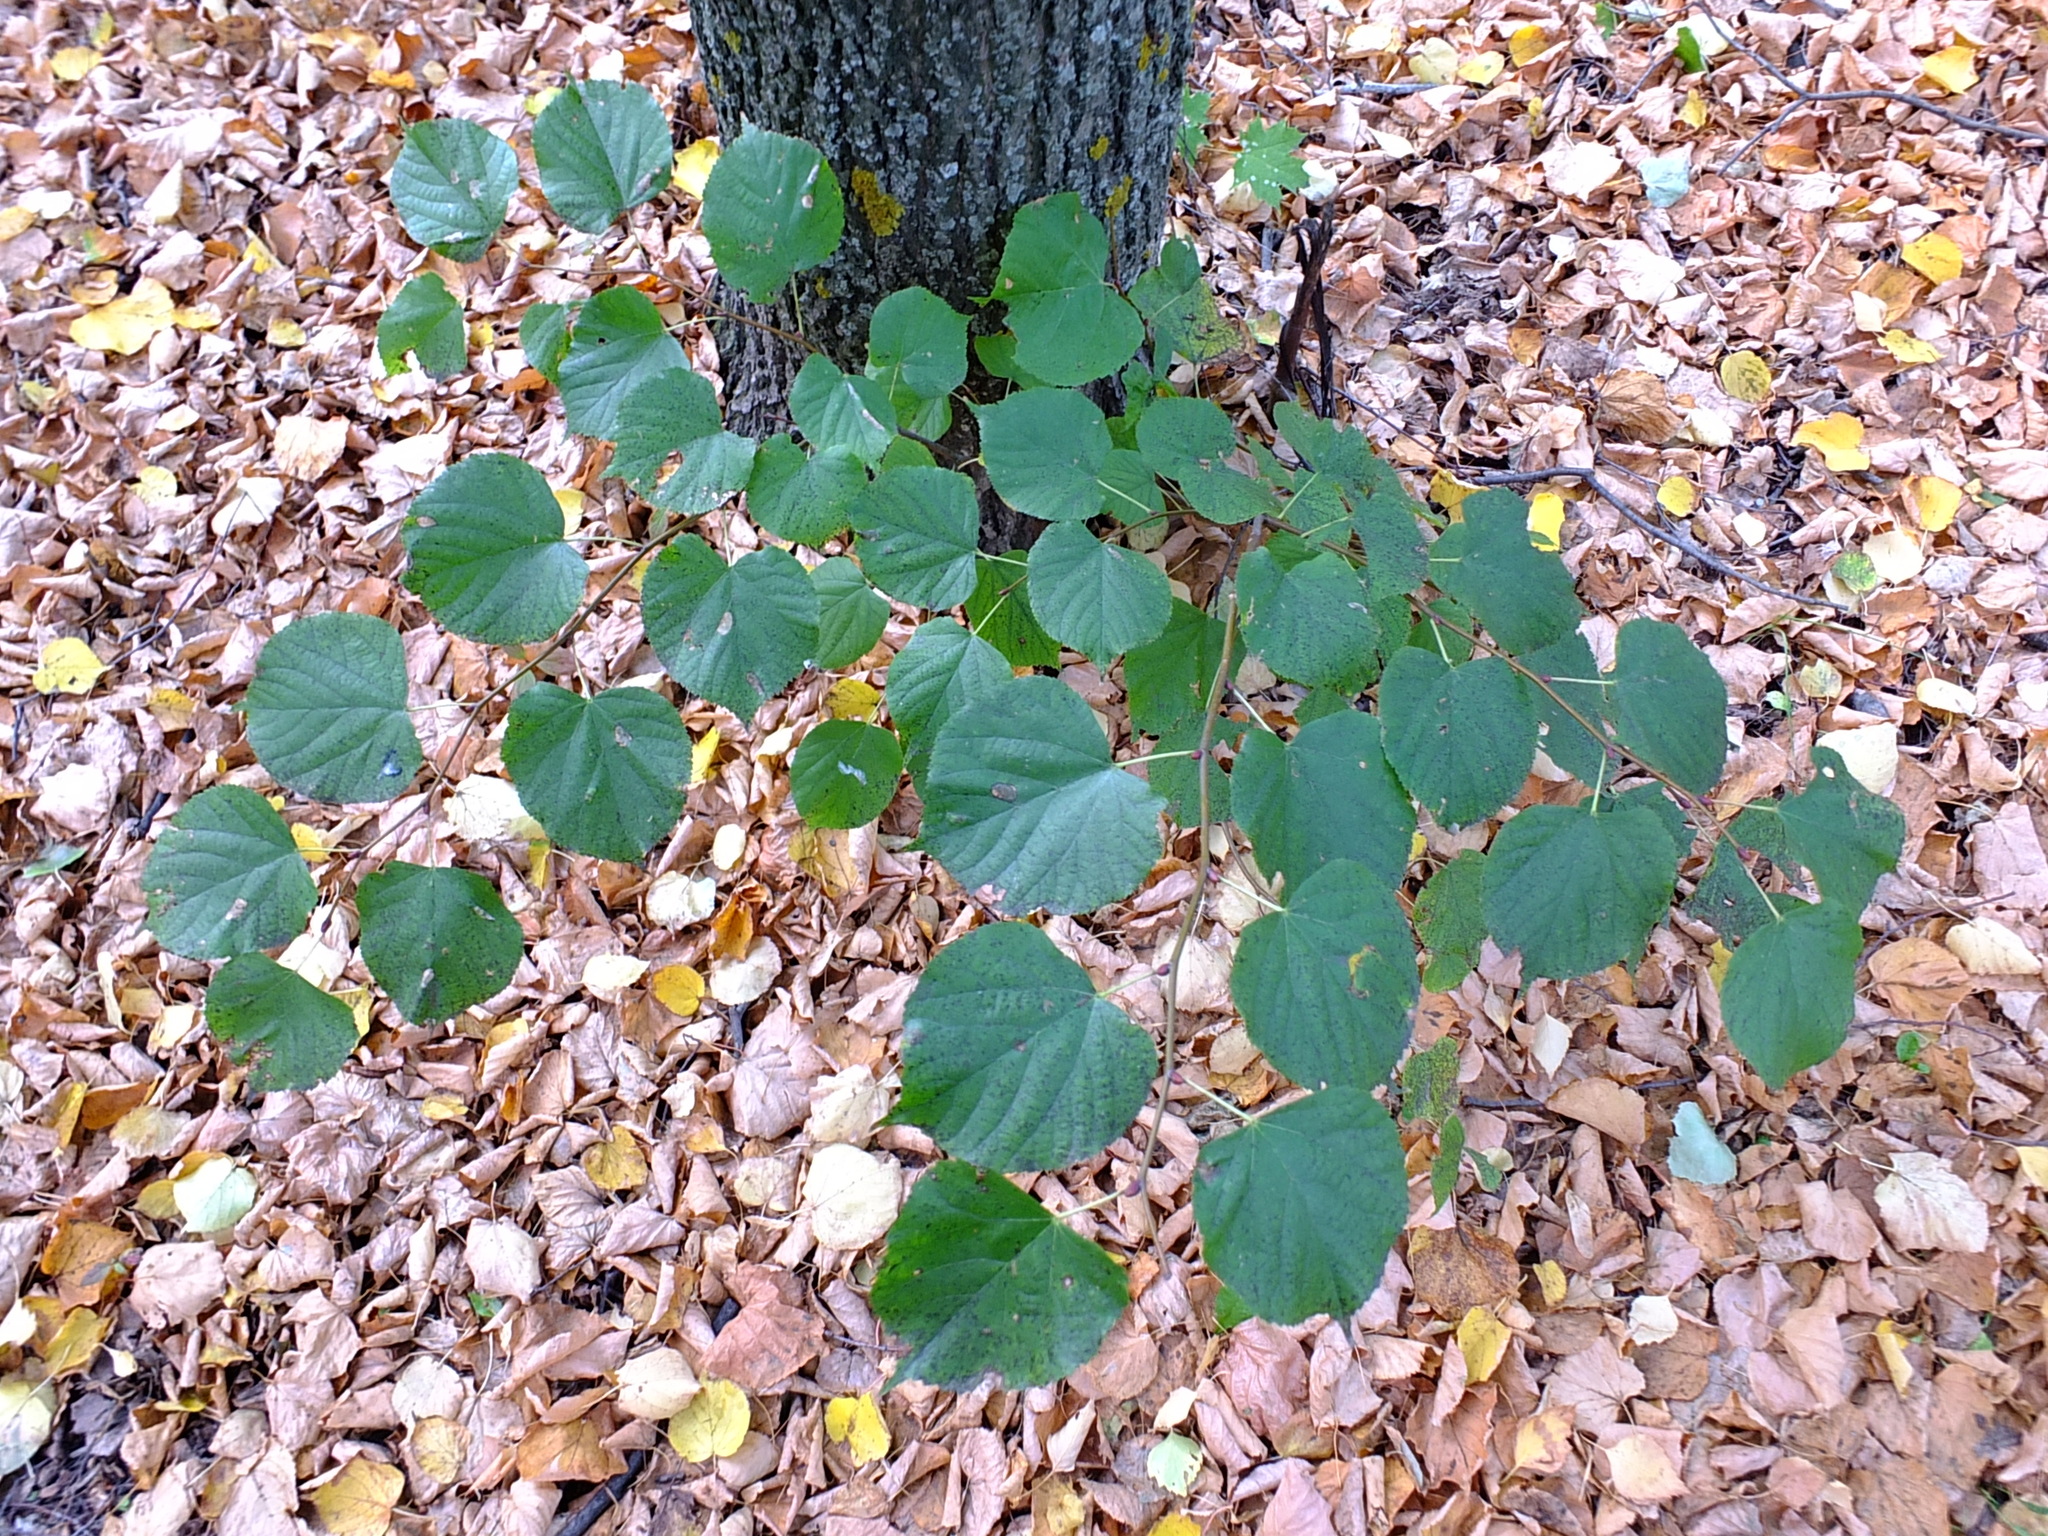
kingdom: Plantae
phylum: Tracheophyta
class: Magnoliopsida
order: Malvales
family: Malvaceae
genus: Tilia
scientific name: Tilia cordata
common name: Small-leaved lime
